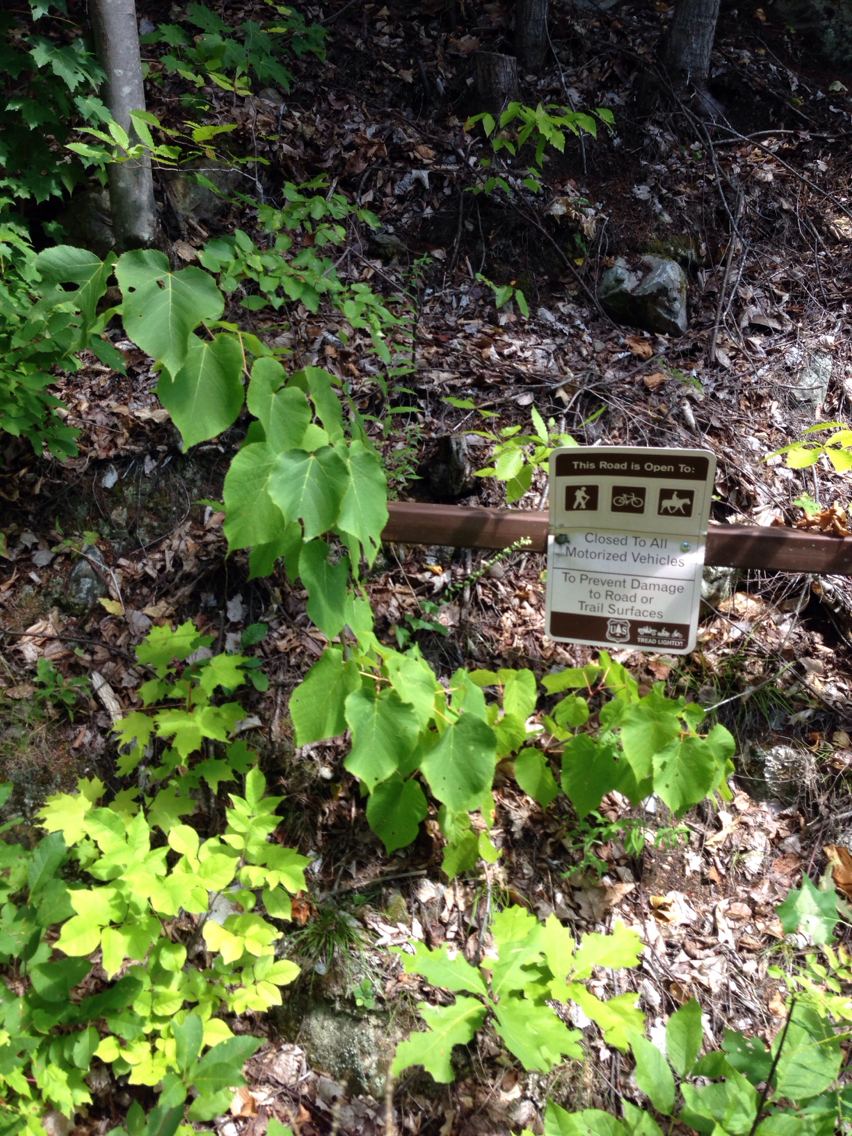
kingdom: Plantae
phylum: Tracheophyta
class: Magnoliopsida
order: Malvales
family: Malvaceae
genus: Tilia
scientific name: Tilia americana
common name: Basswood
